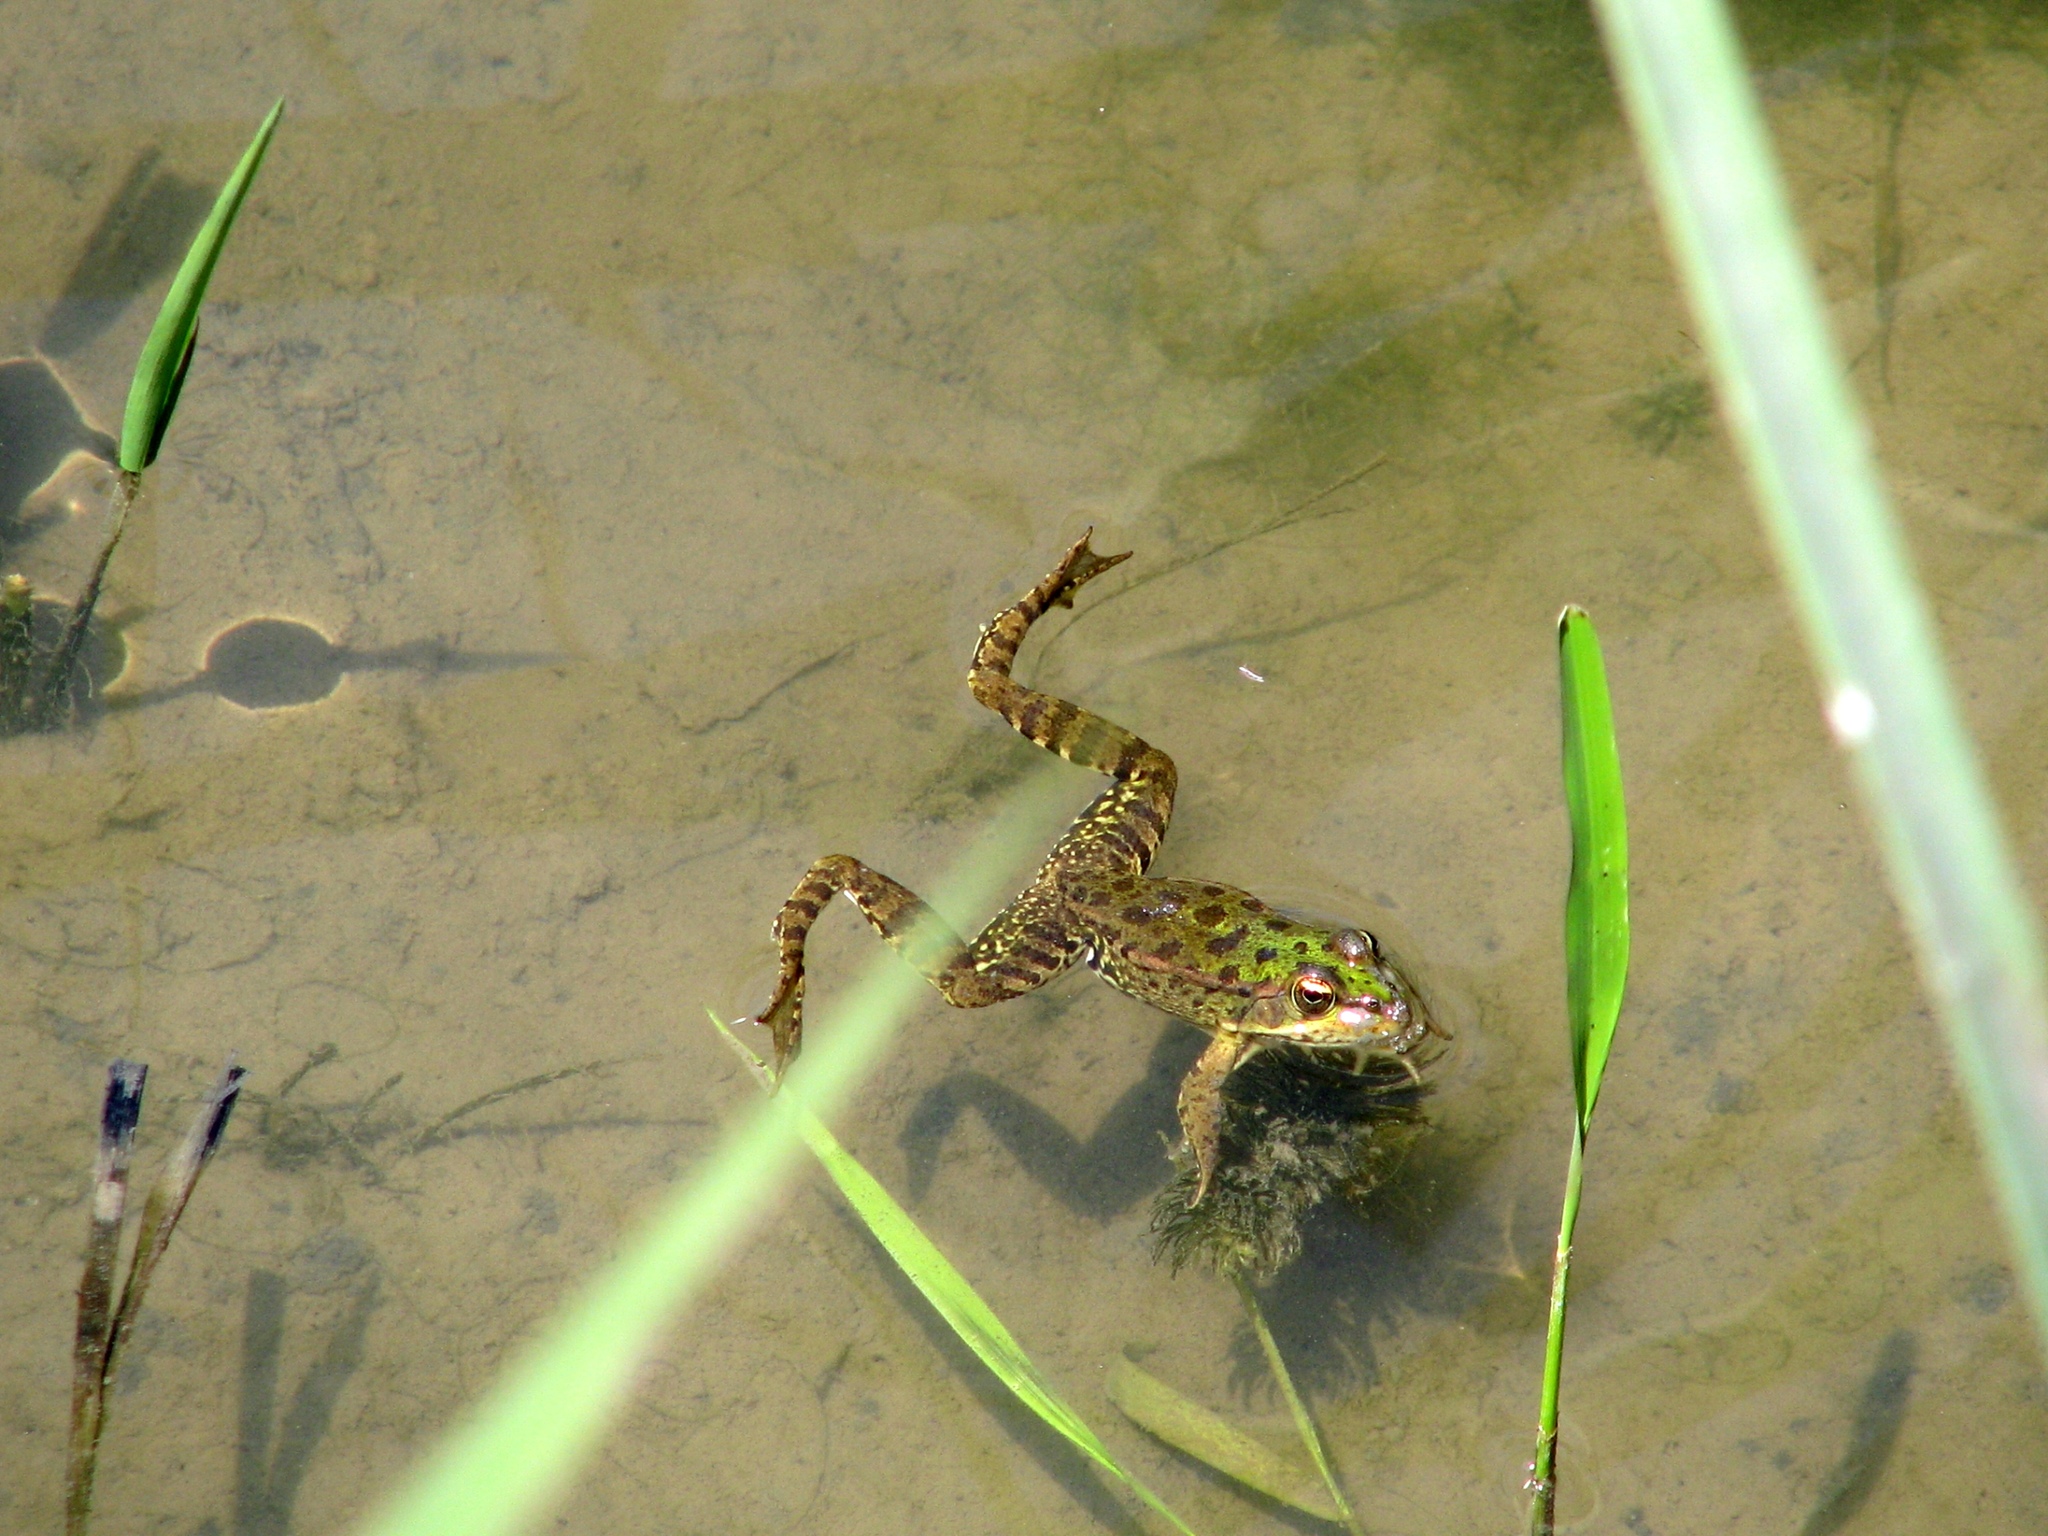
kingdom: Animalia
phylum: Chordata
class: Amphibia
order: Anura
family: Ranidae
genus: Pelophylax
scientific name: Pelophylax ridibundus
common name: Marsh frog
